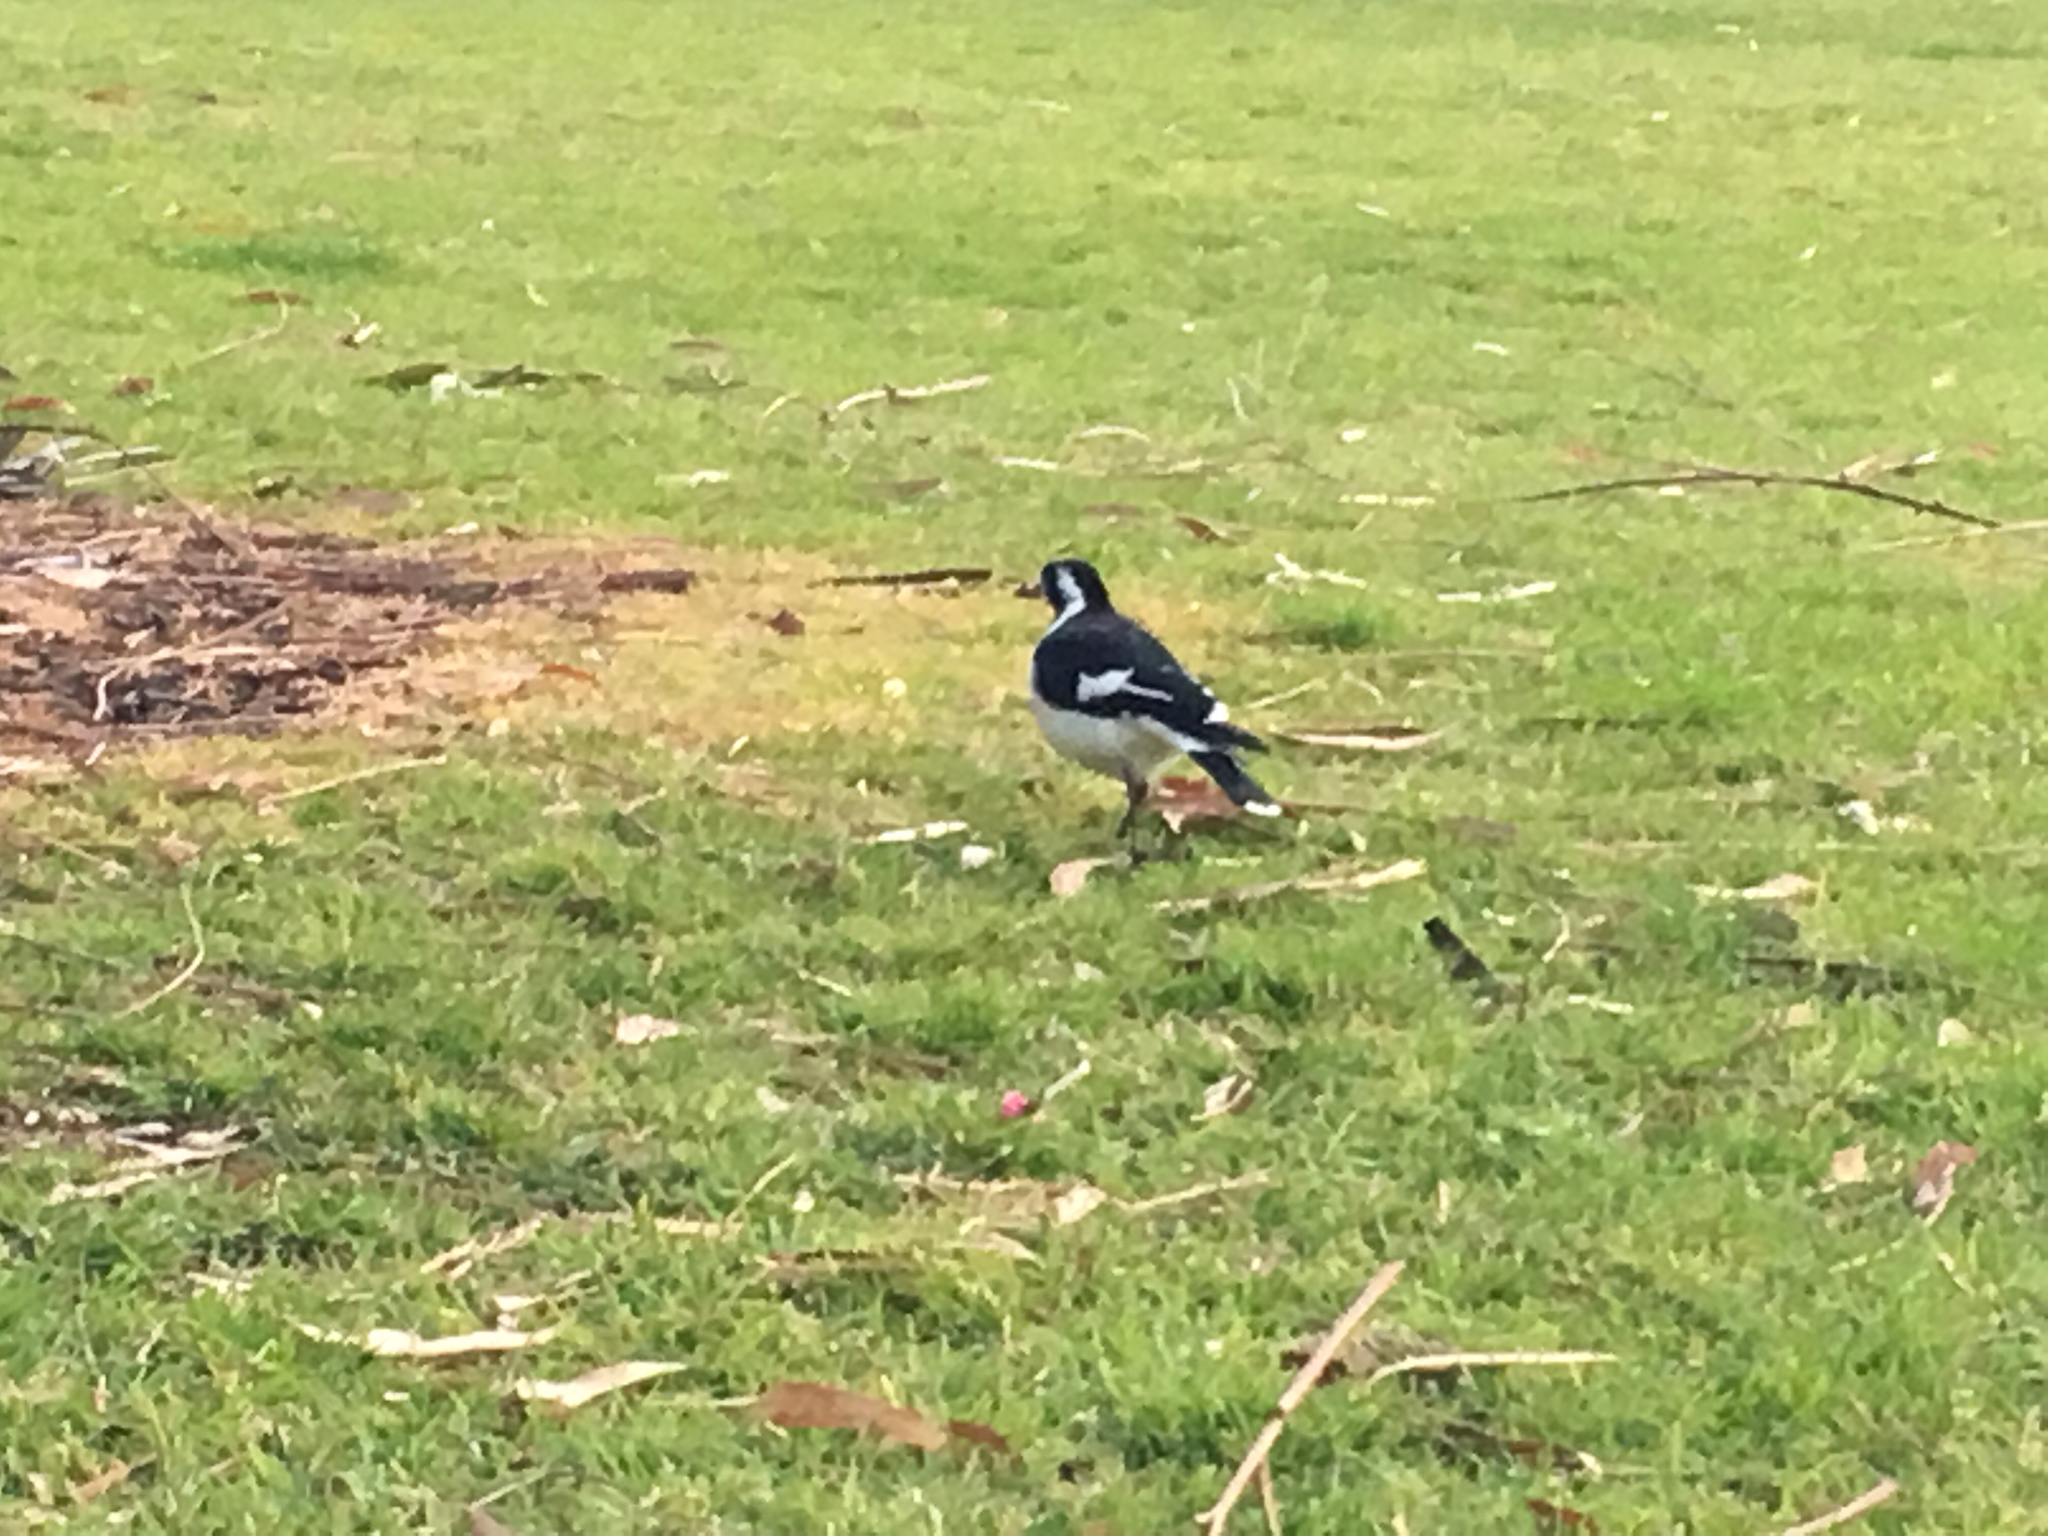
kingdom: Animalia
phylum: Chordata
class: Aves
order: Passeriformes
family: Monarchidae
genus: Grallina
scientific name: Grallina cyanoleuca
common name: Magpie-lark
